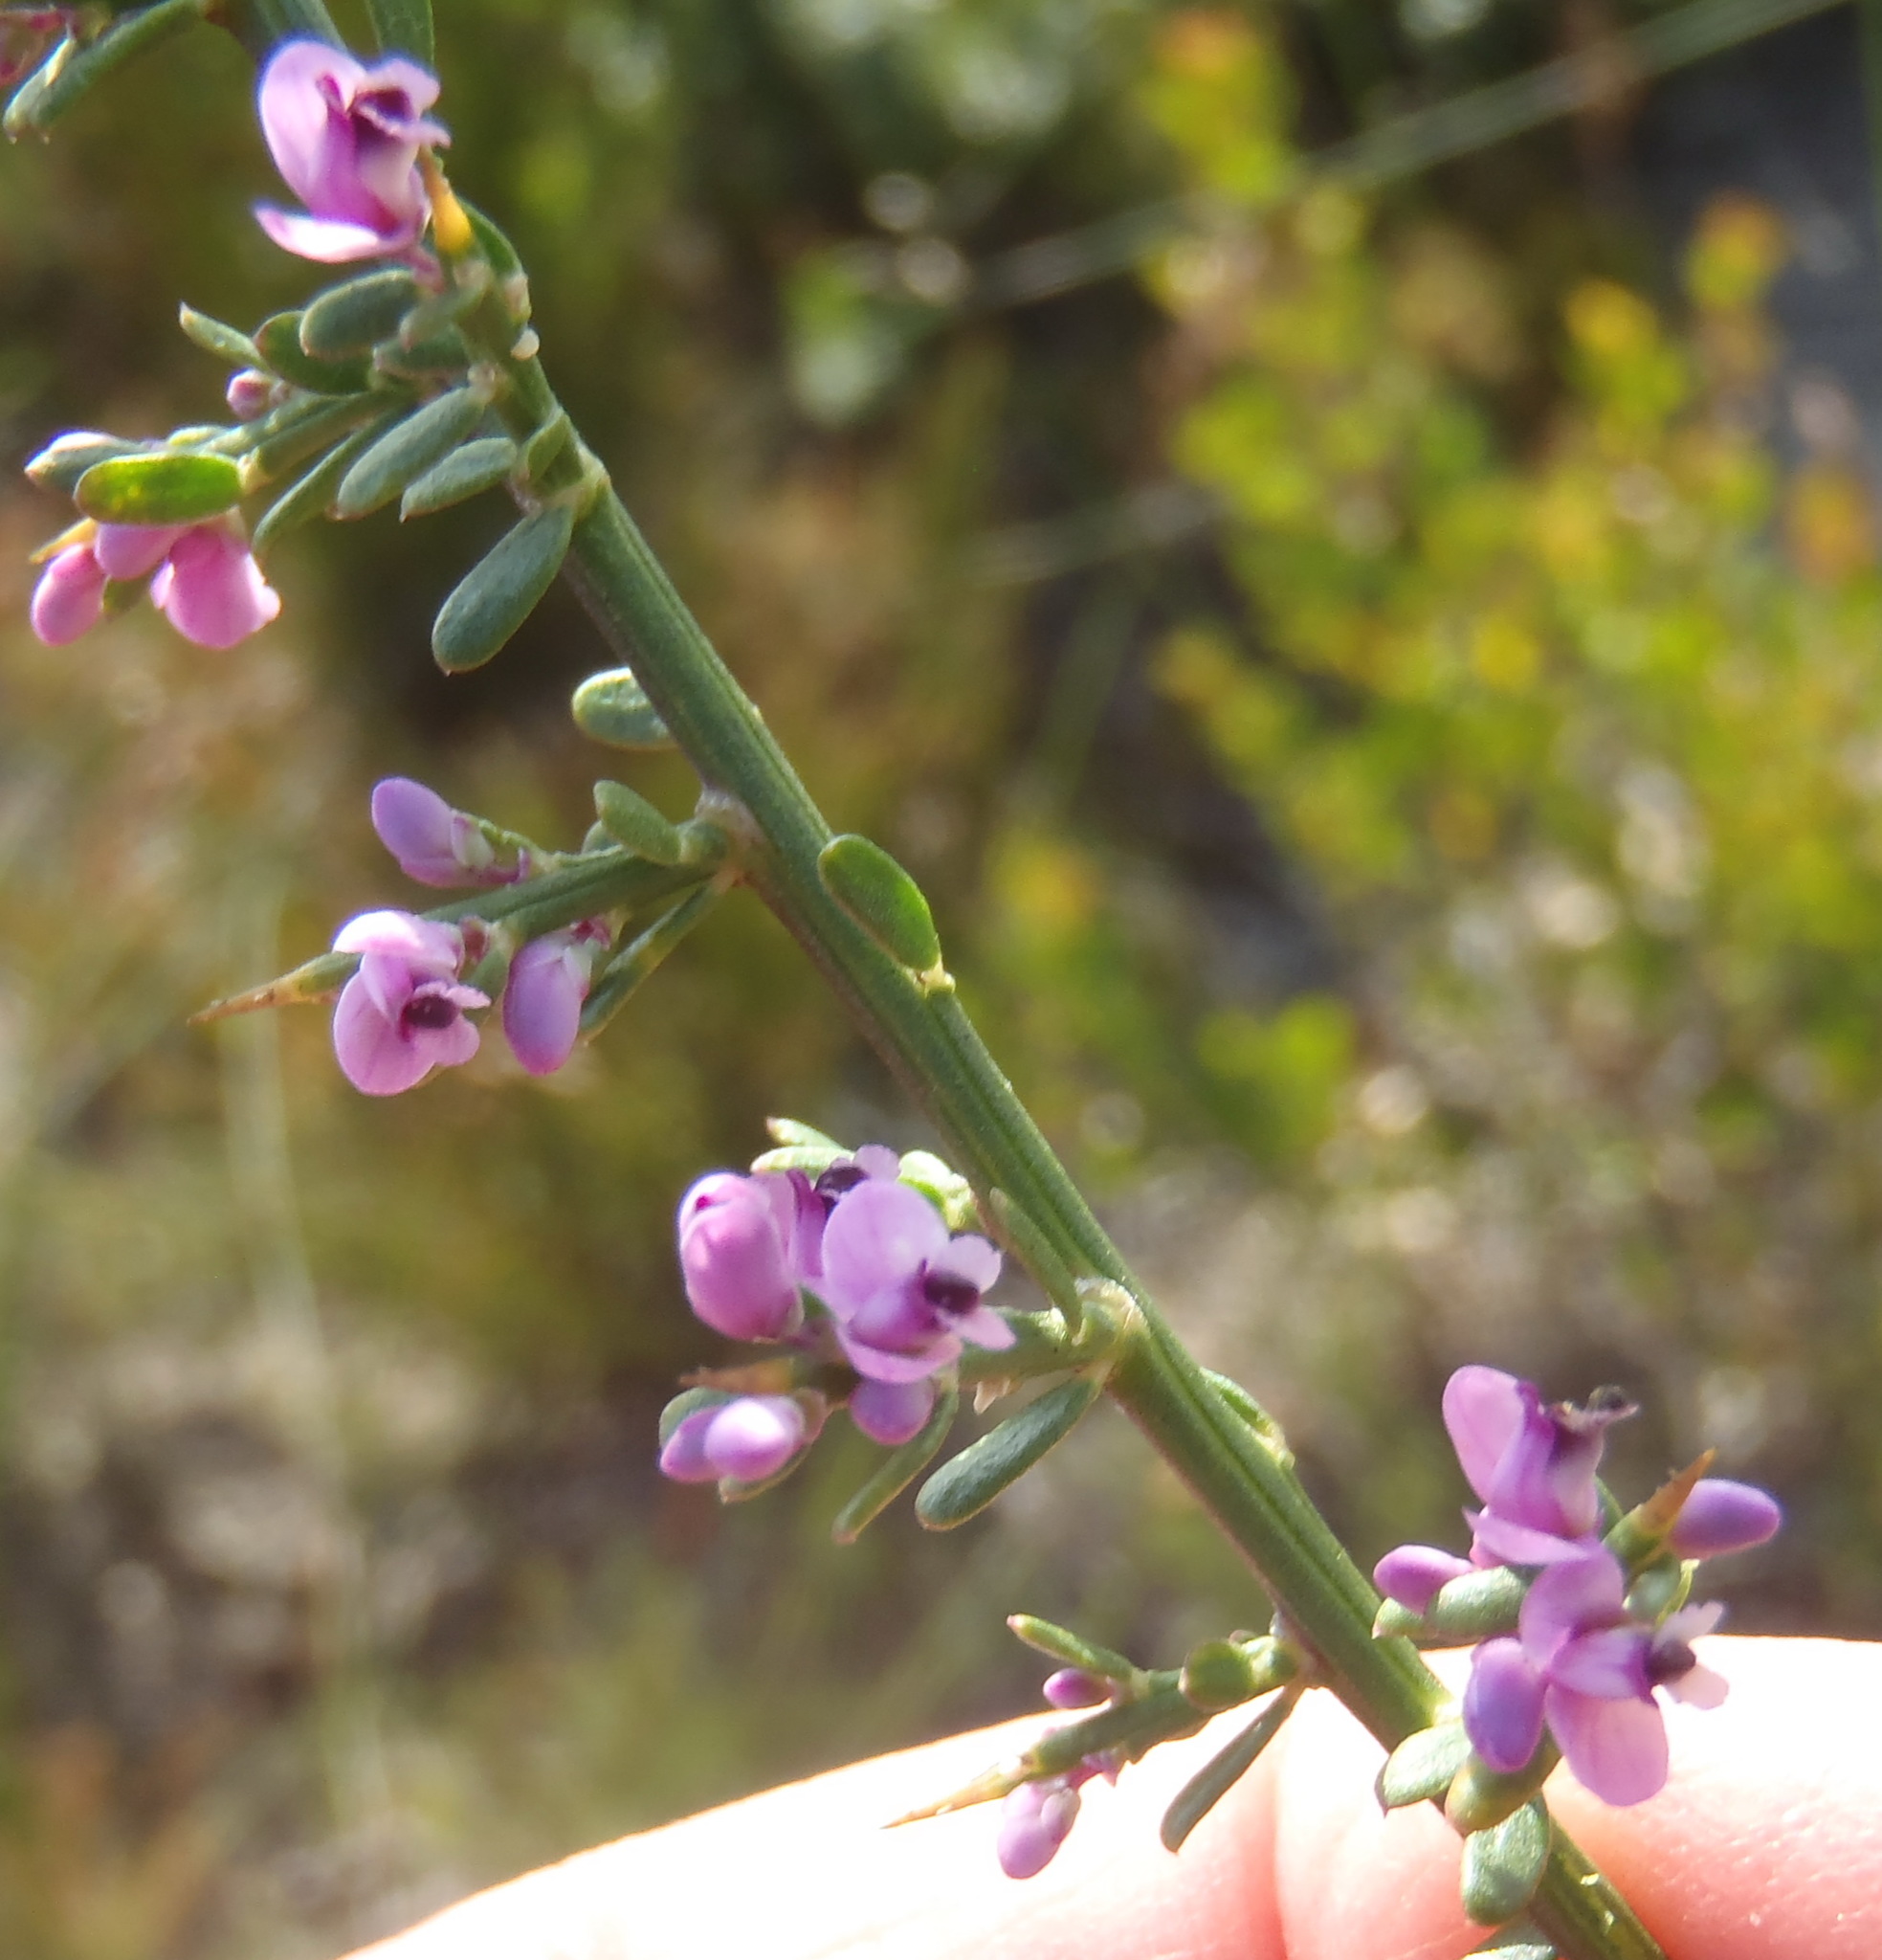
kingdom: Plantae
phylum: Tracheophyta
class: Magnoliopsida
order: Fabales
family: Polygalaceae
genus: Muraltia
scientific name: Muraltia spinosa
